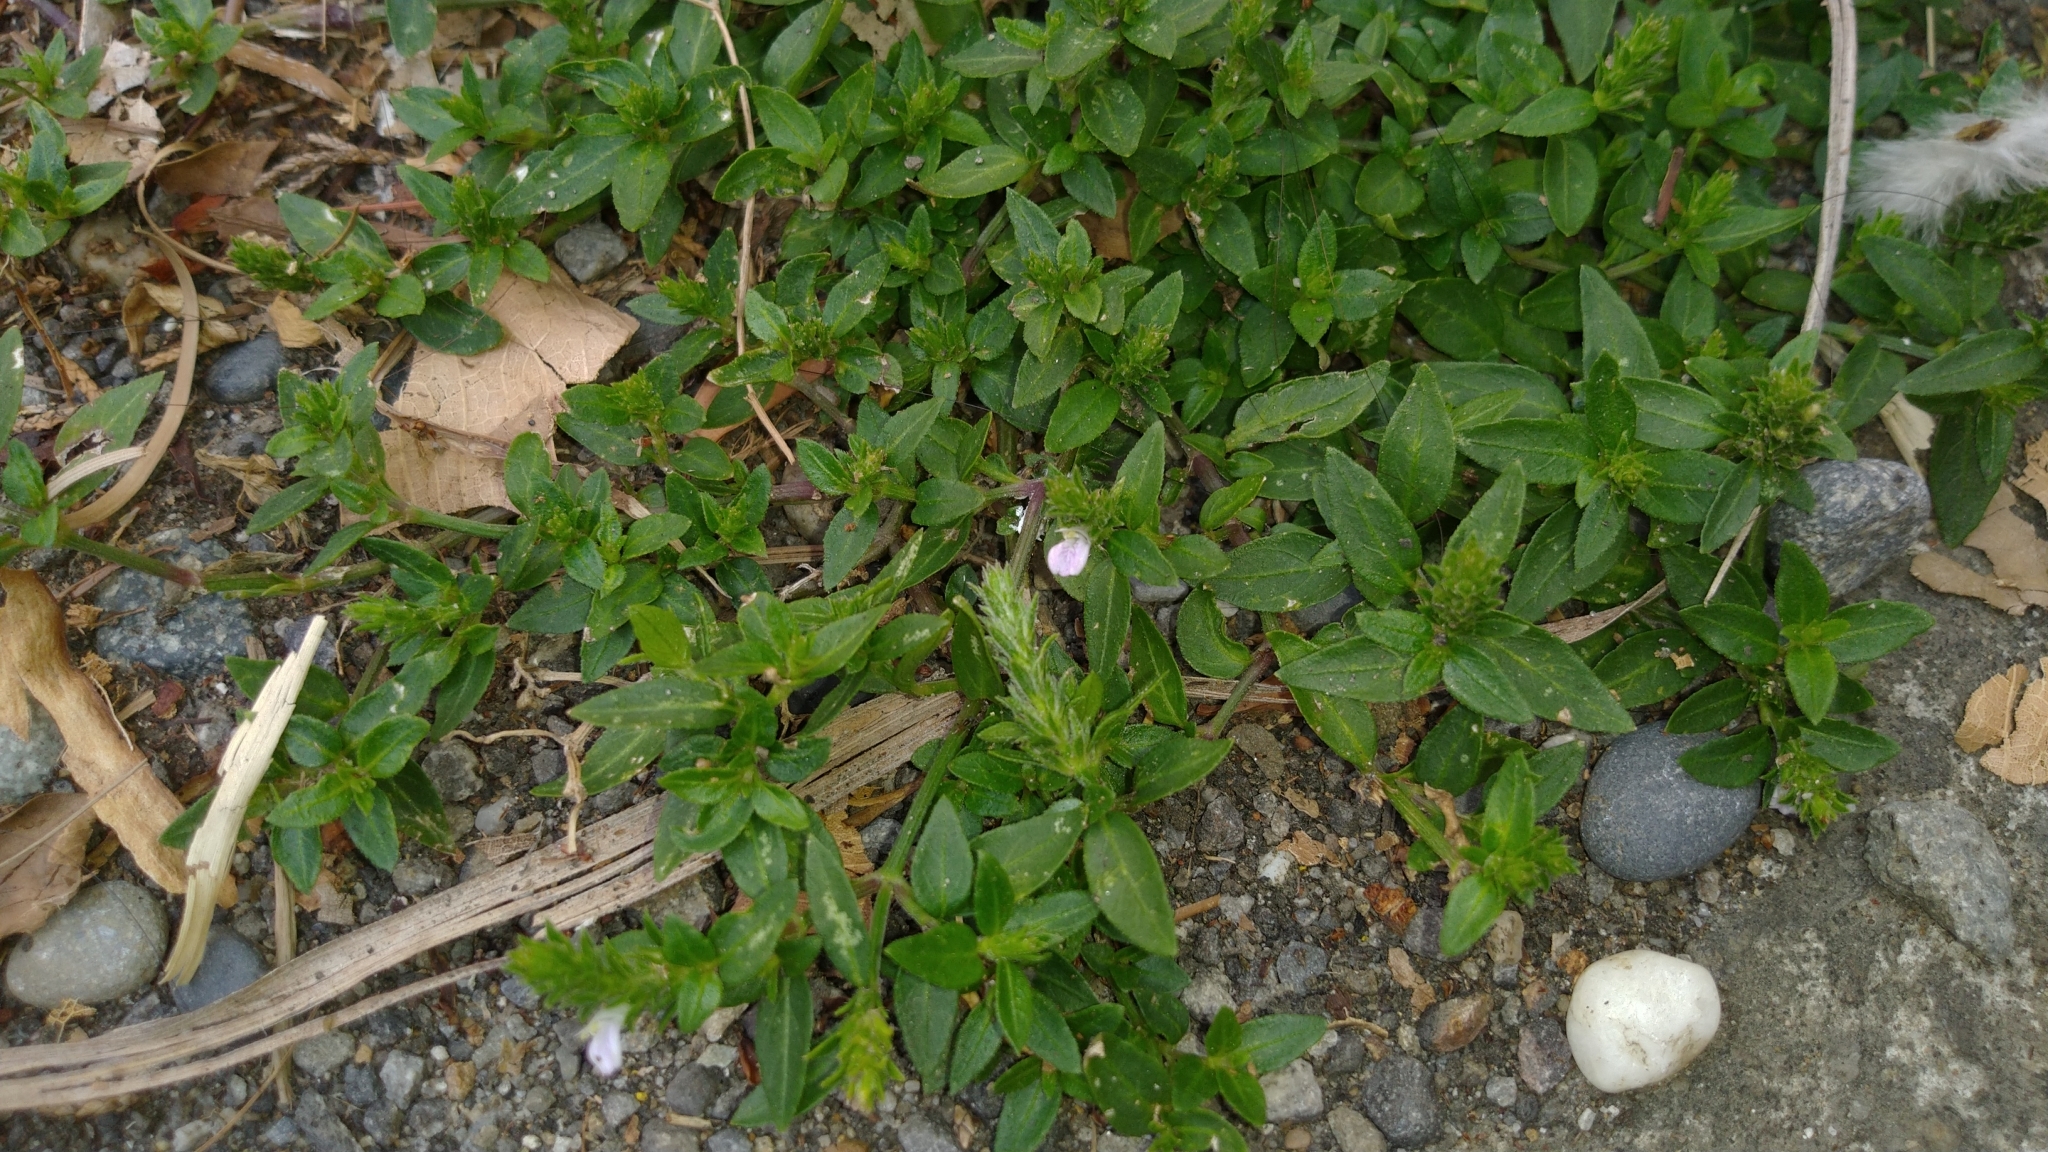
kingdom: Plantae
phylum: Tracheophyta
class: Magnoliopsida
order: Lamiales
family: Acanthaceae
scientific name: Acanthaceae
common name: Acanthaceae
